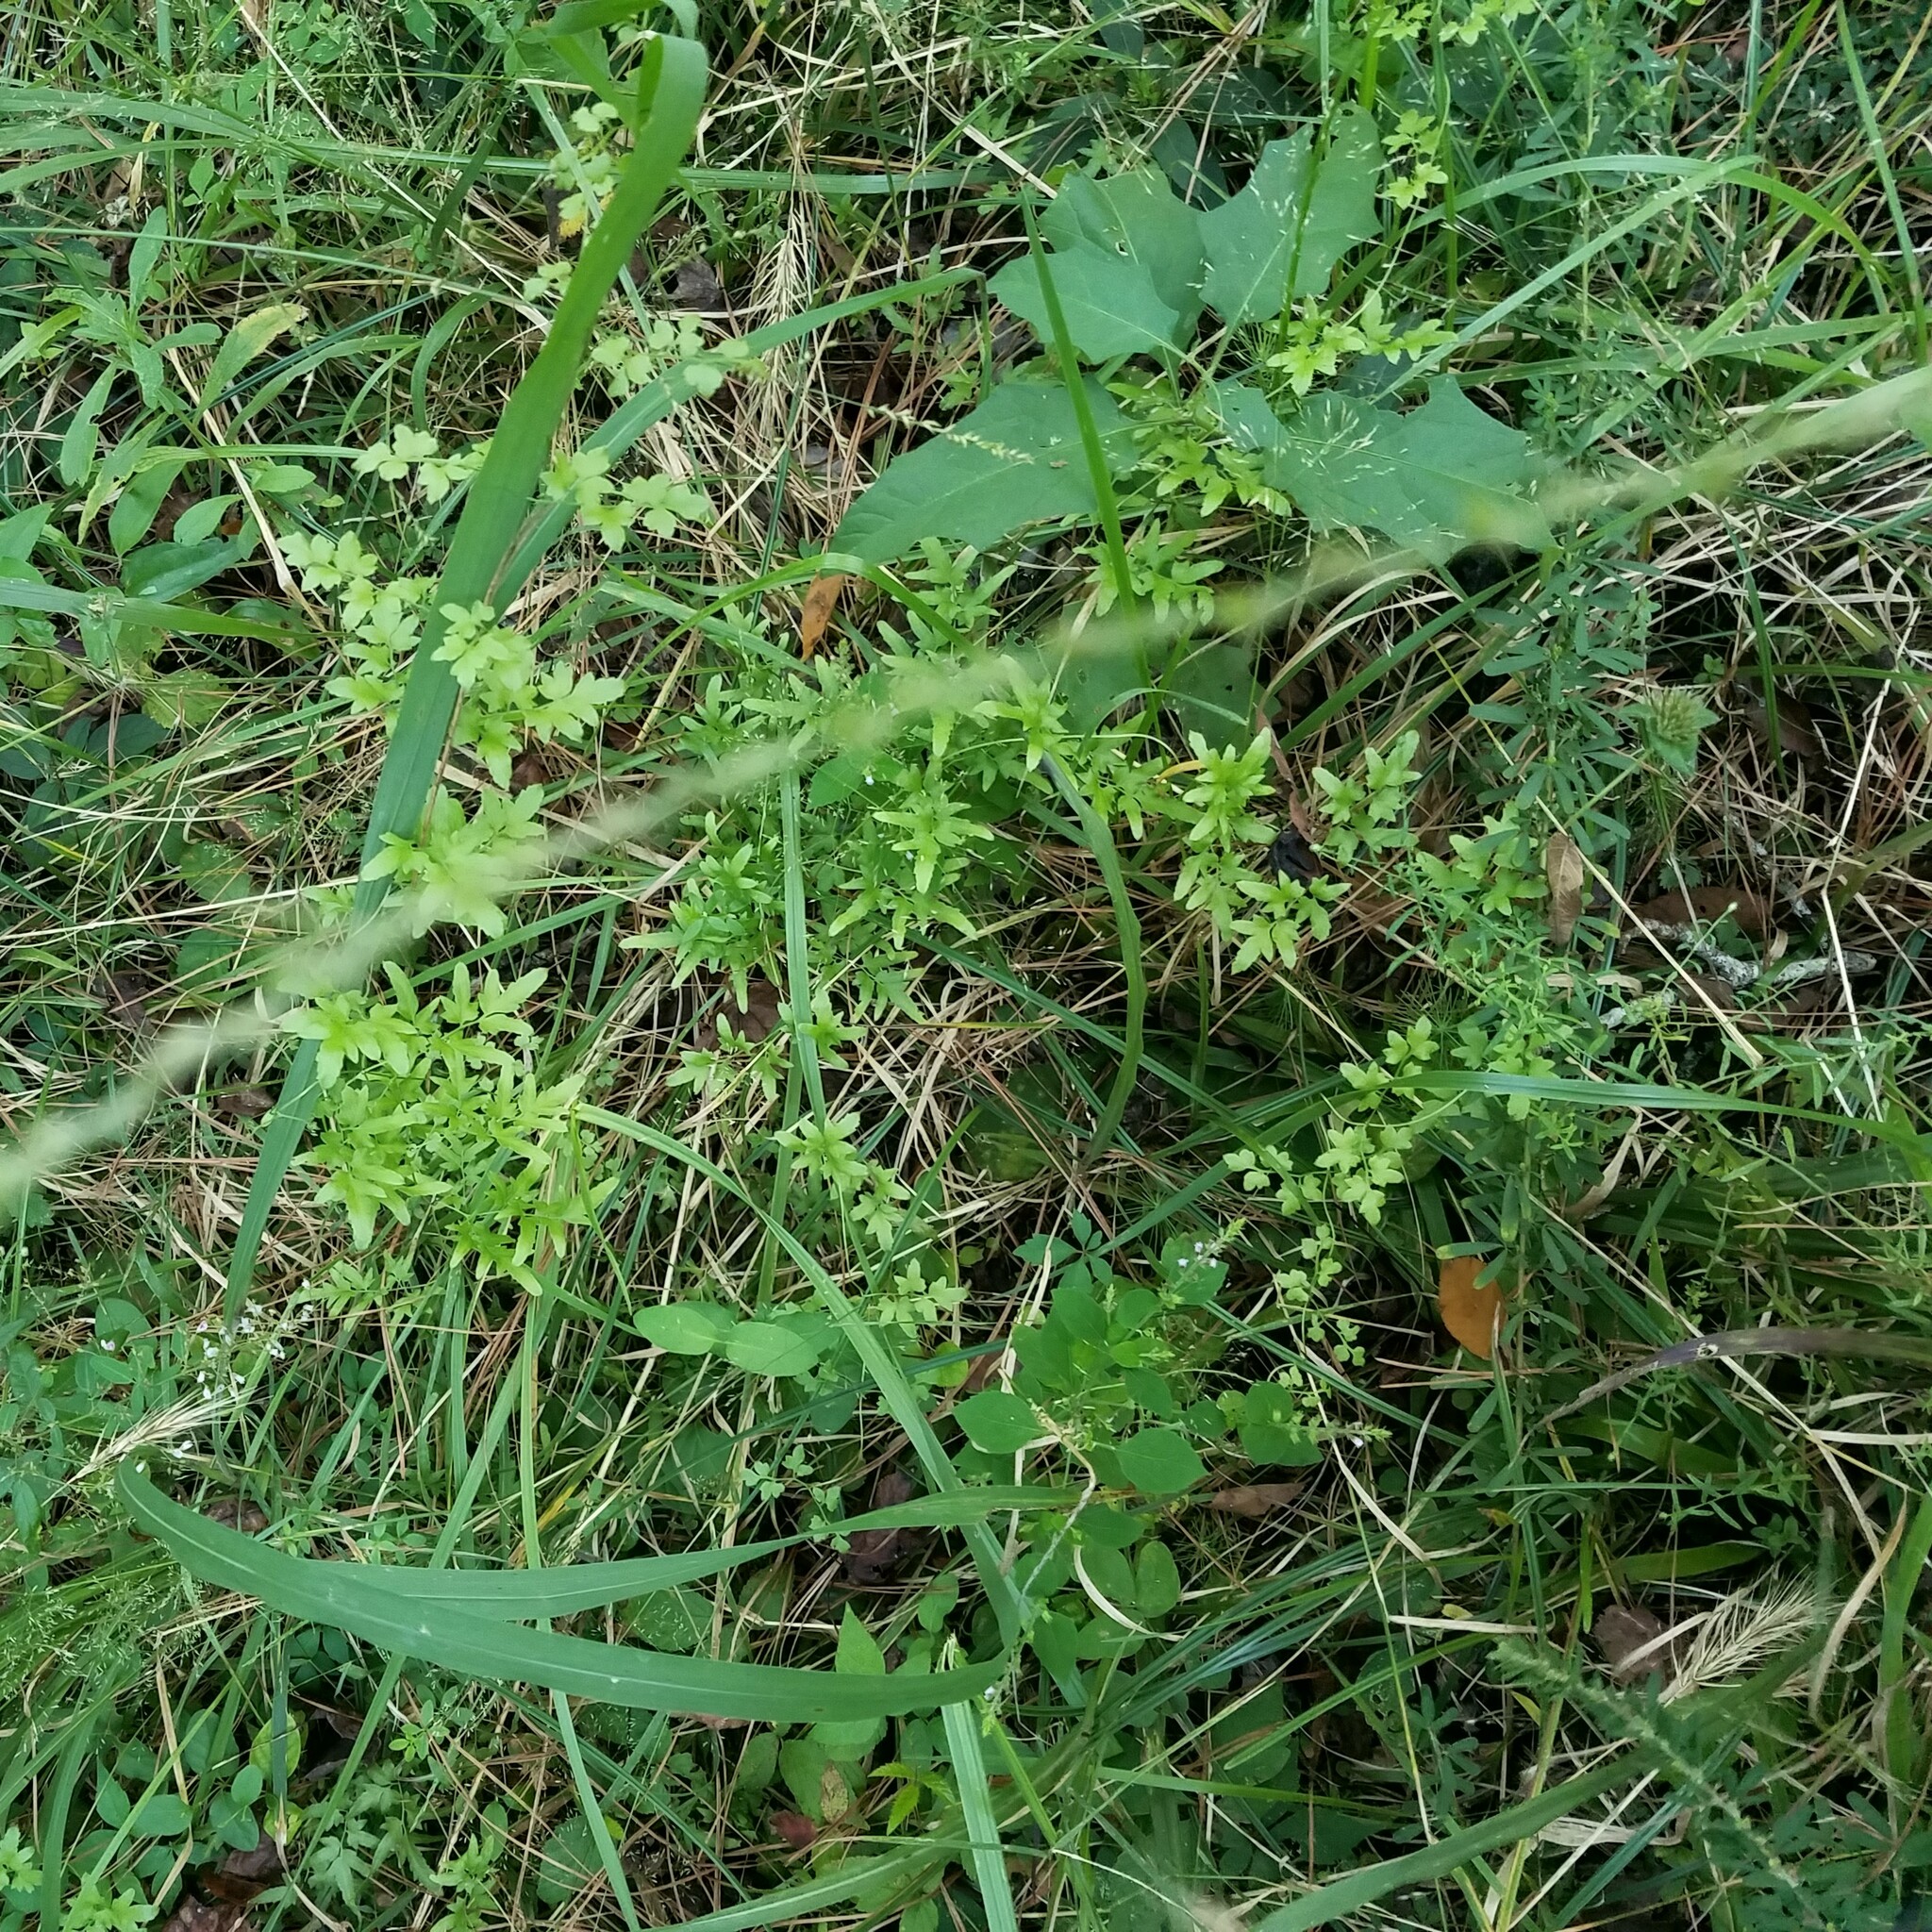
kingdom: Plantae
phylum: Tracheophyta
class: Polypodiopsida
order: Schizaeales
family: Lygodiaceae
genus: Lygodium
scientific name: Lygodium japonicum
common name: Japanese climbing fern
